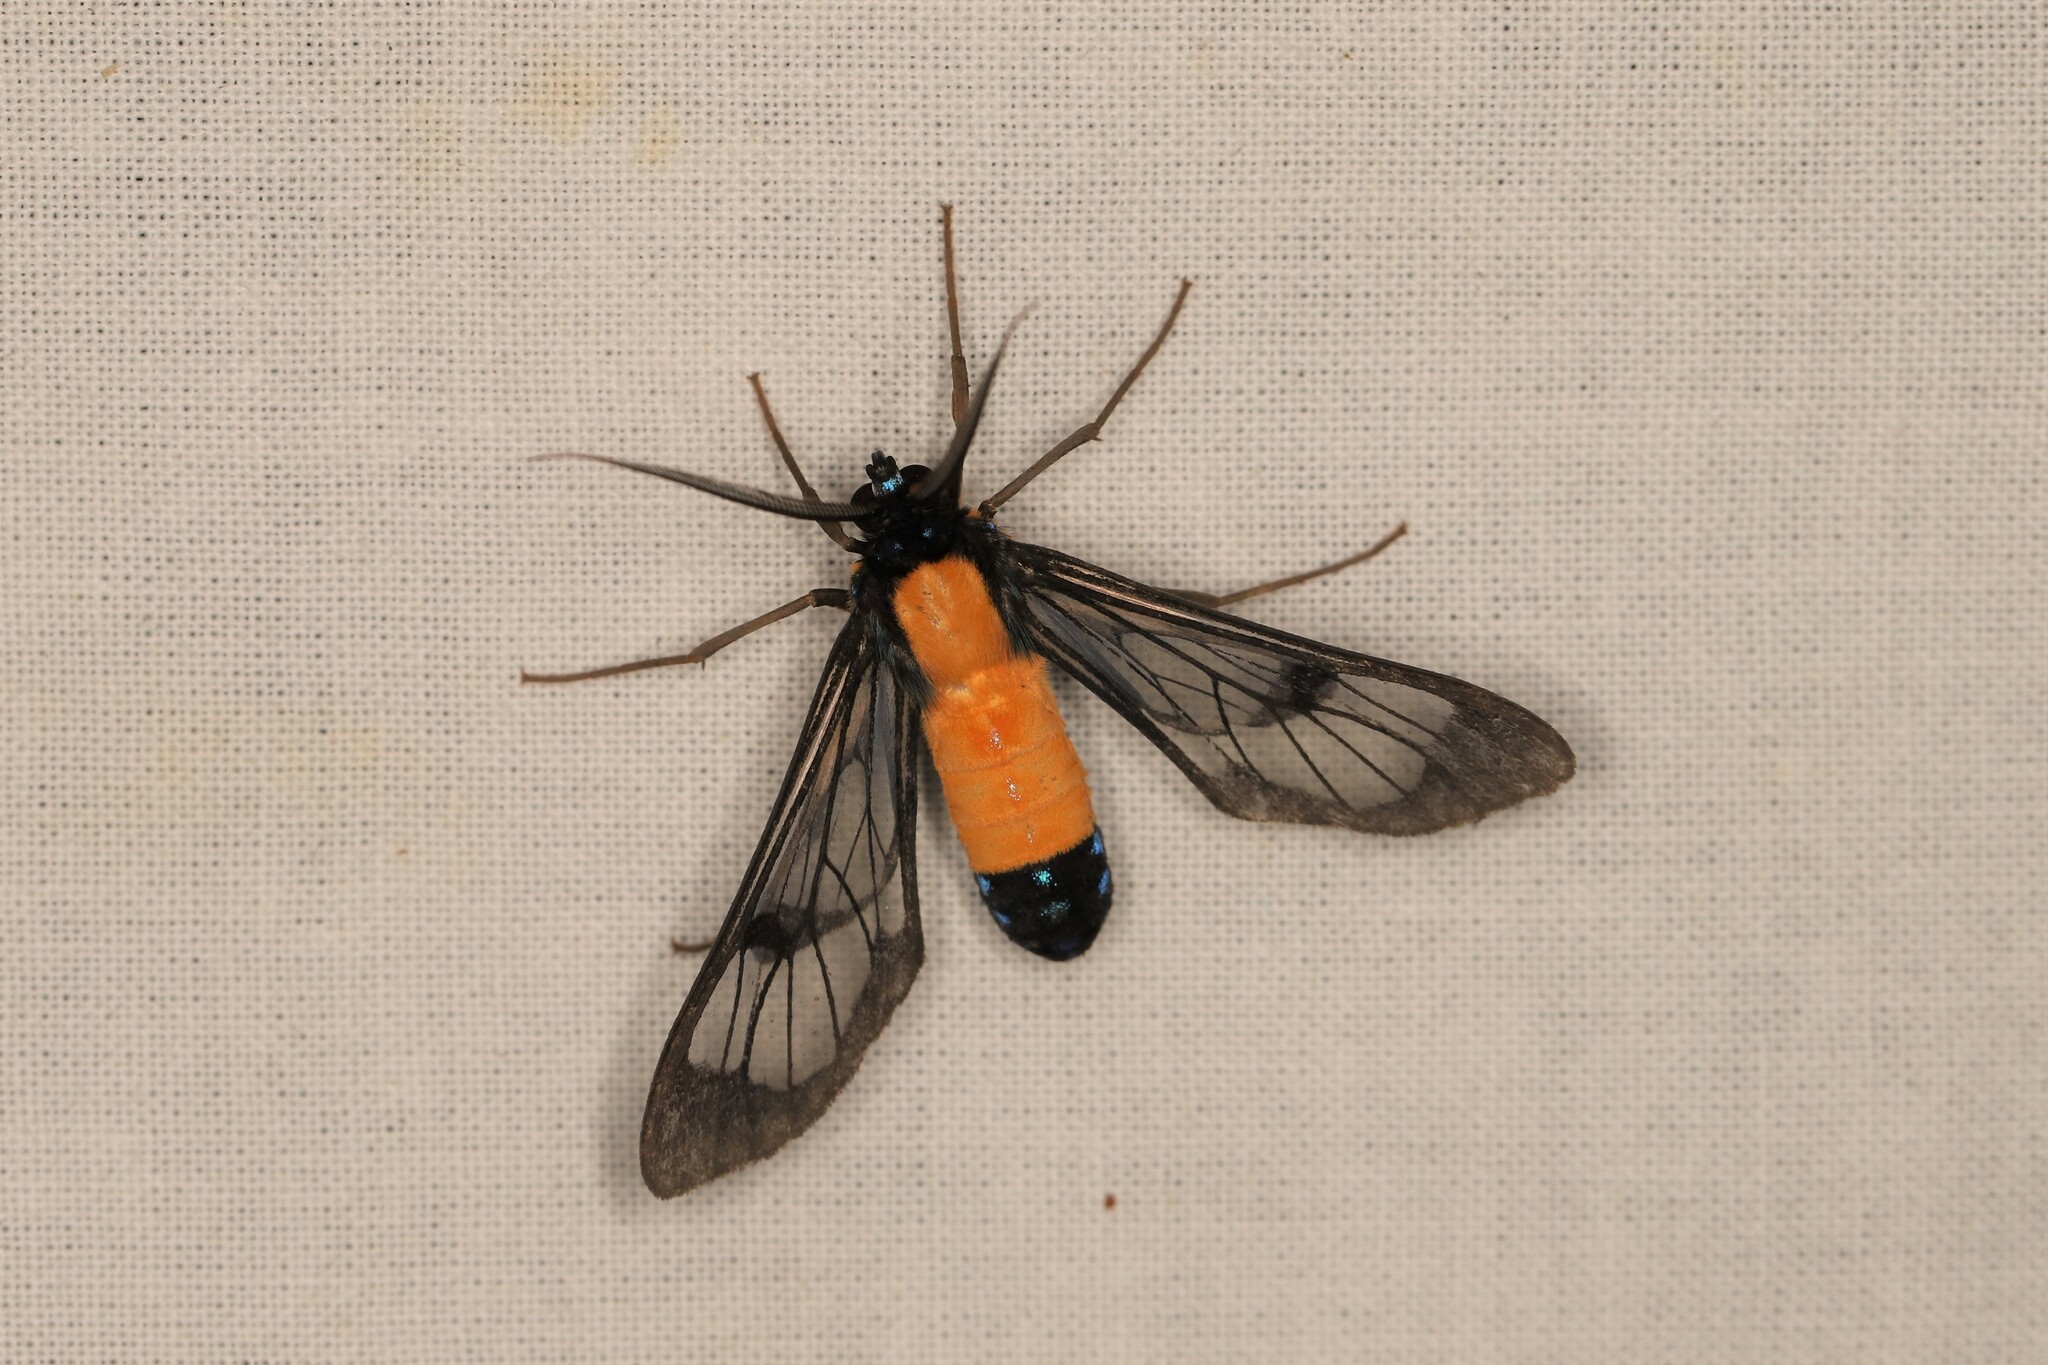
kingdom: Animalia
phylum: Arthropoda
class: Insecta
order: Lepidoptera
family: Erebidae
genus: Cosmosoma
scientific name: Cosmosoma intensa
